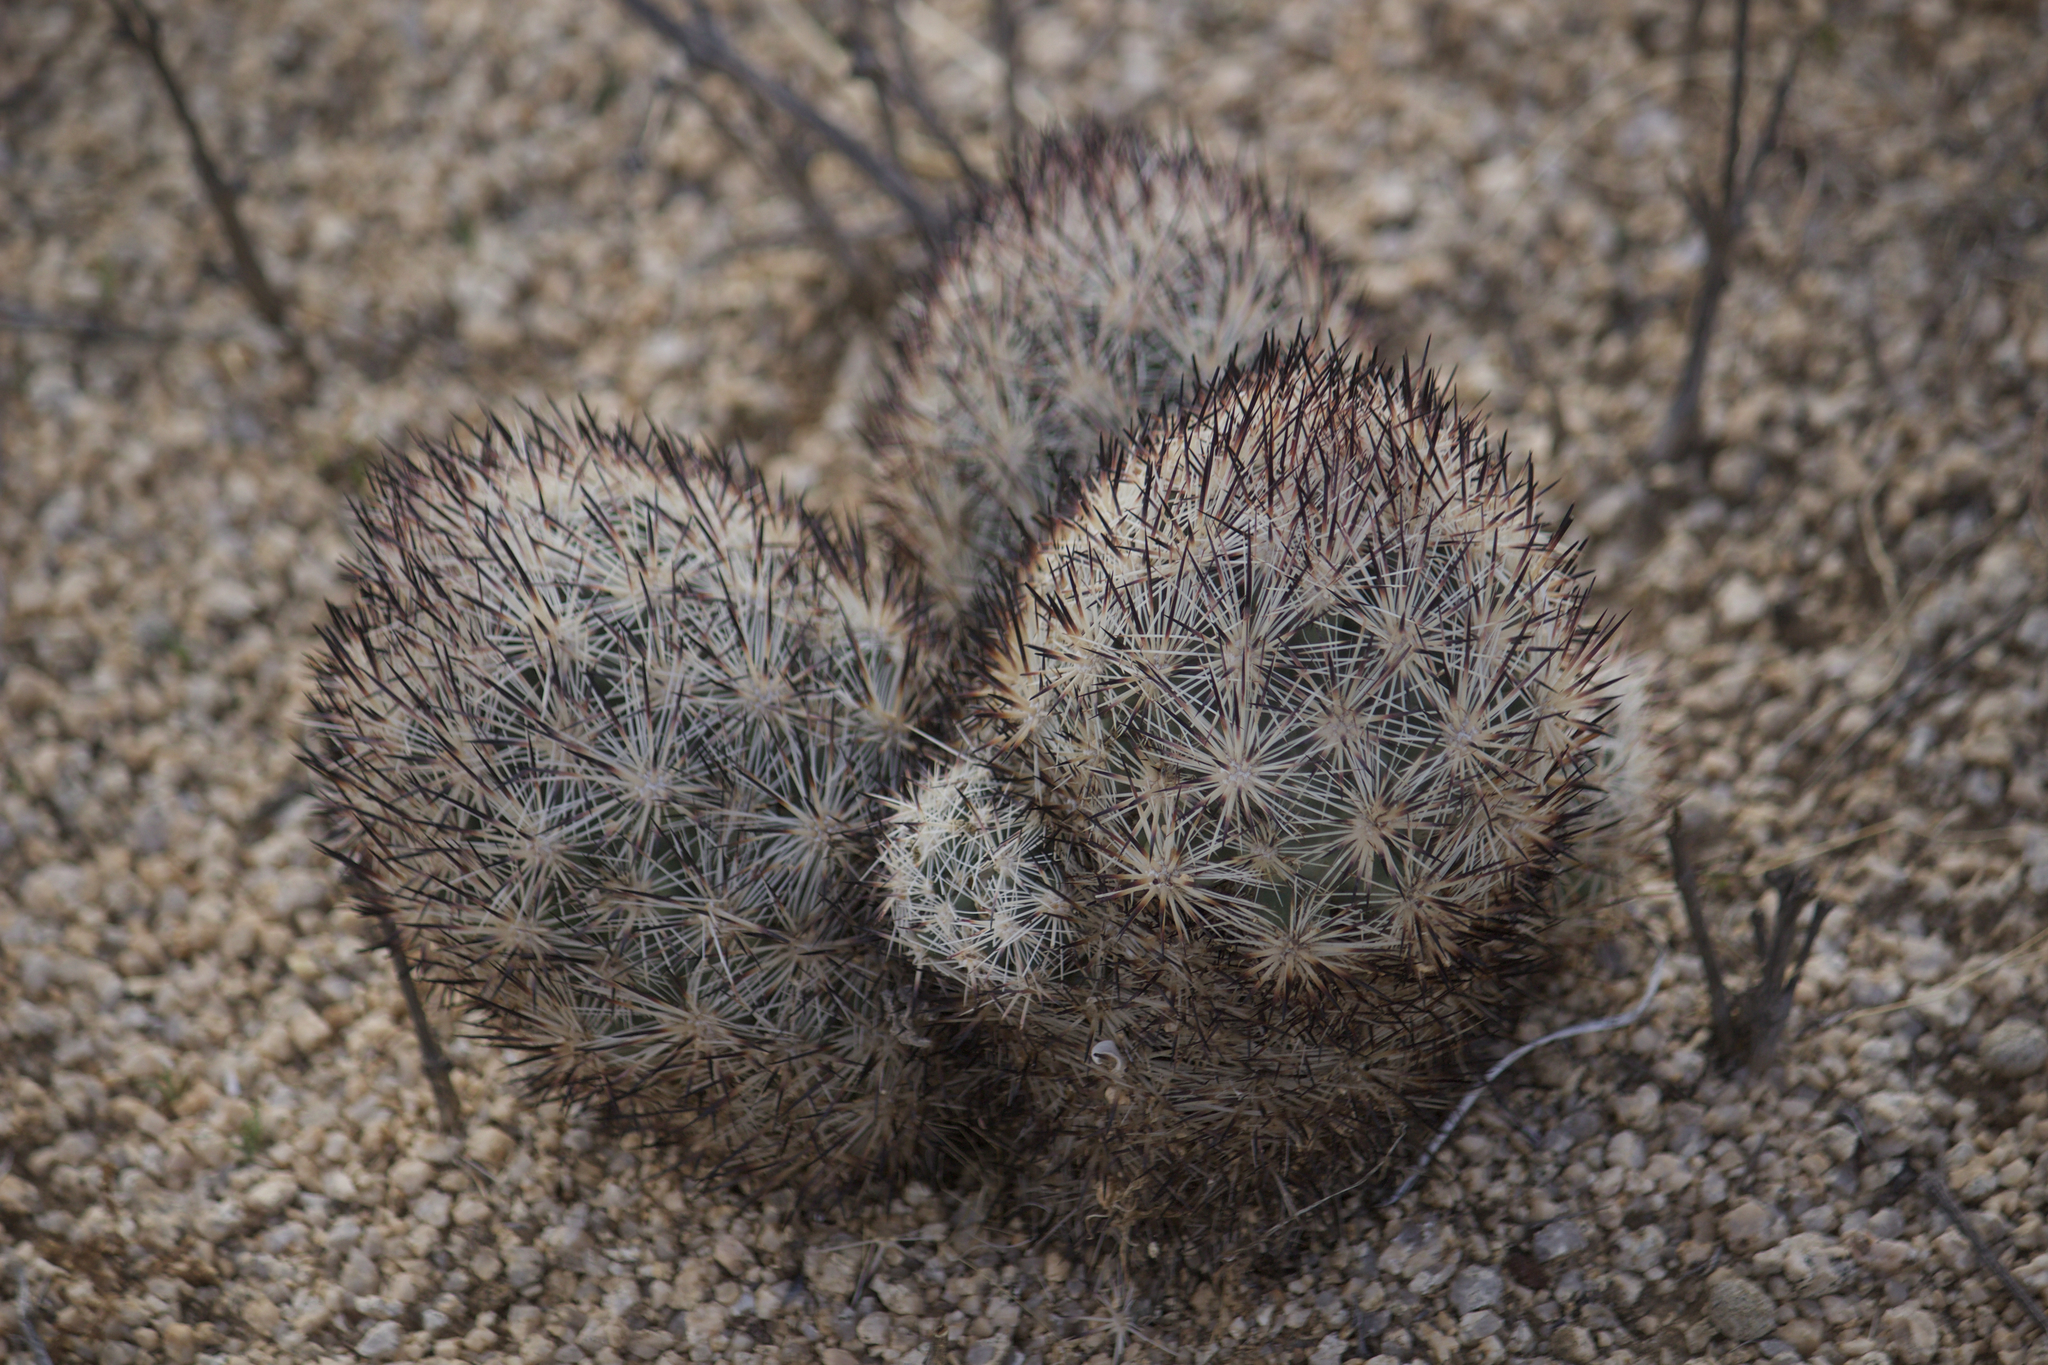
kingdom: Plantae
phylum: Tracheophyta
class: Magnoliopsida
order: Caryophyllales
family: Cactaceae
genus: Pelecyphora
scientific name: Pelecyphora alversonii
